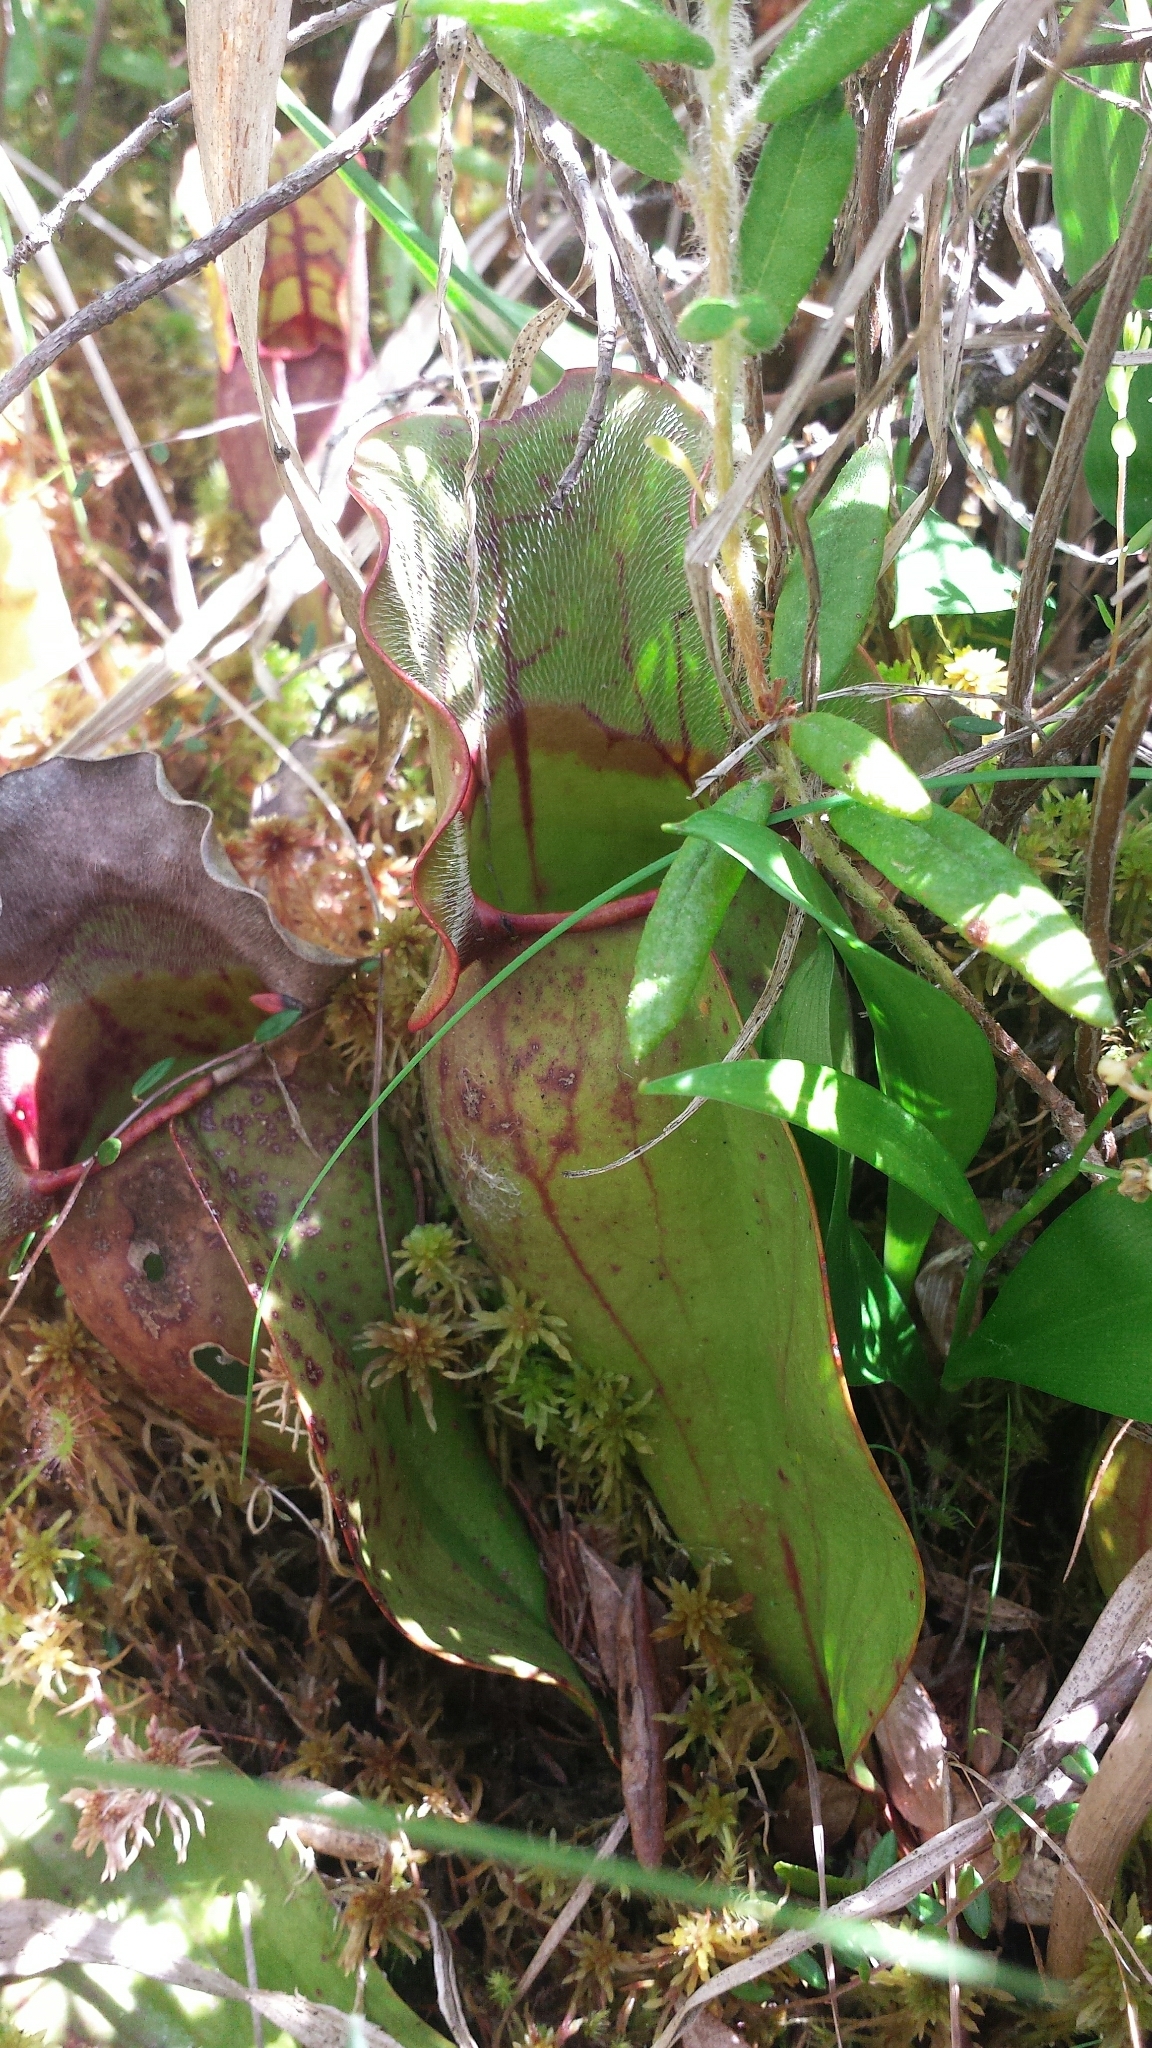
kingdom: Plantae
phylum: Tracheophyta
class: Magnoliopsida
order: Ericales
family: Sarraceniaceae
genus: Sarracenia
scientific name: Sarracenia purpurea
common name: Pitcherplant
